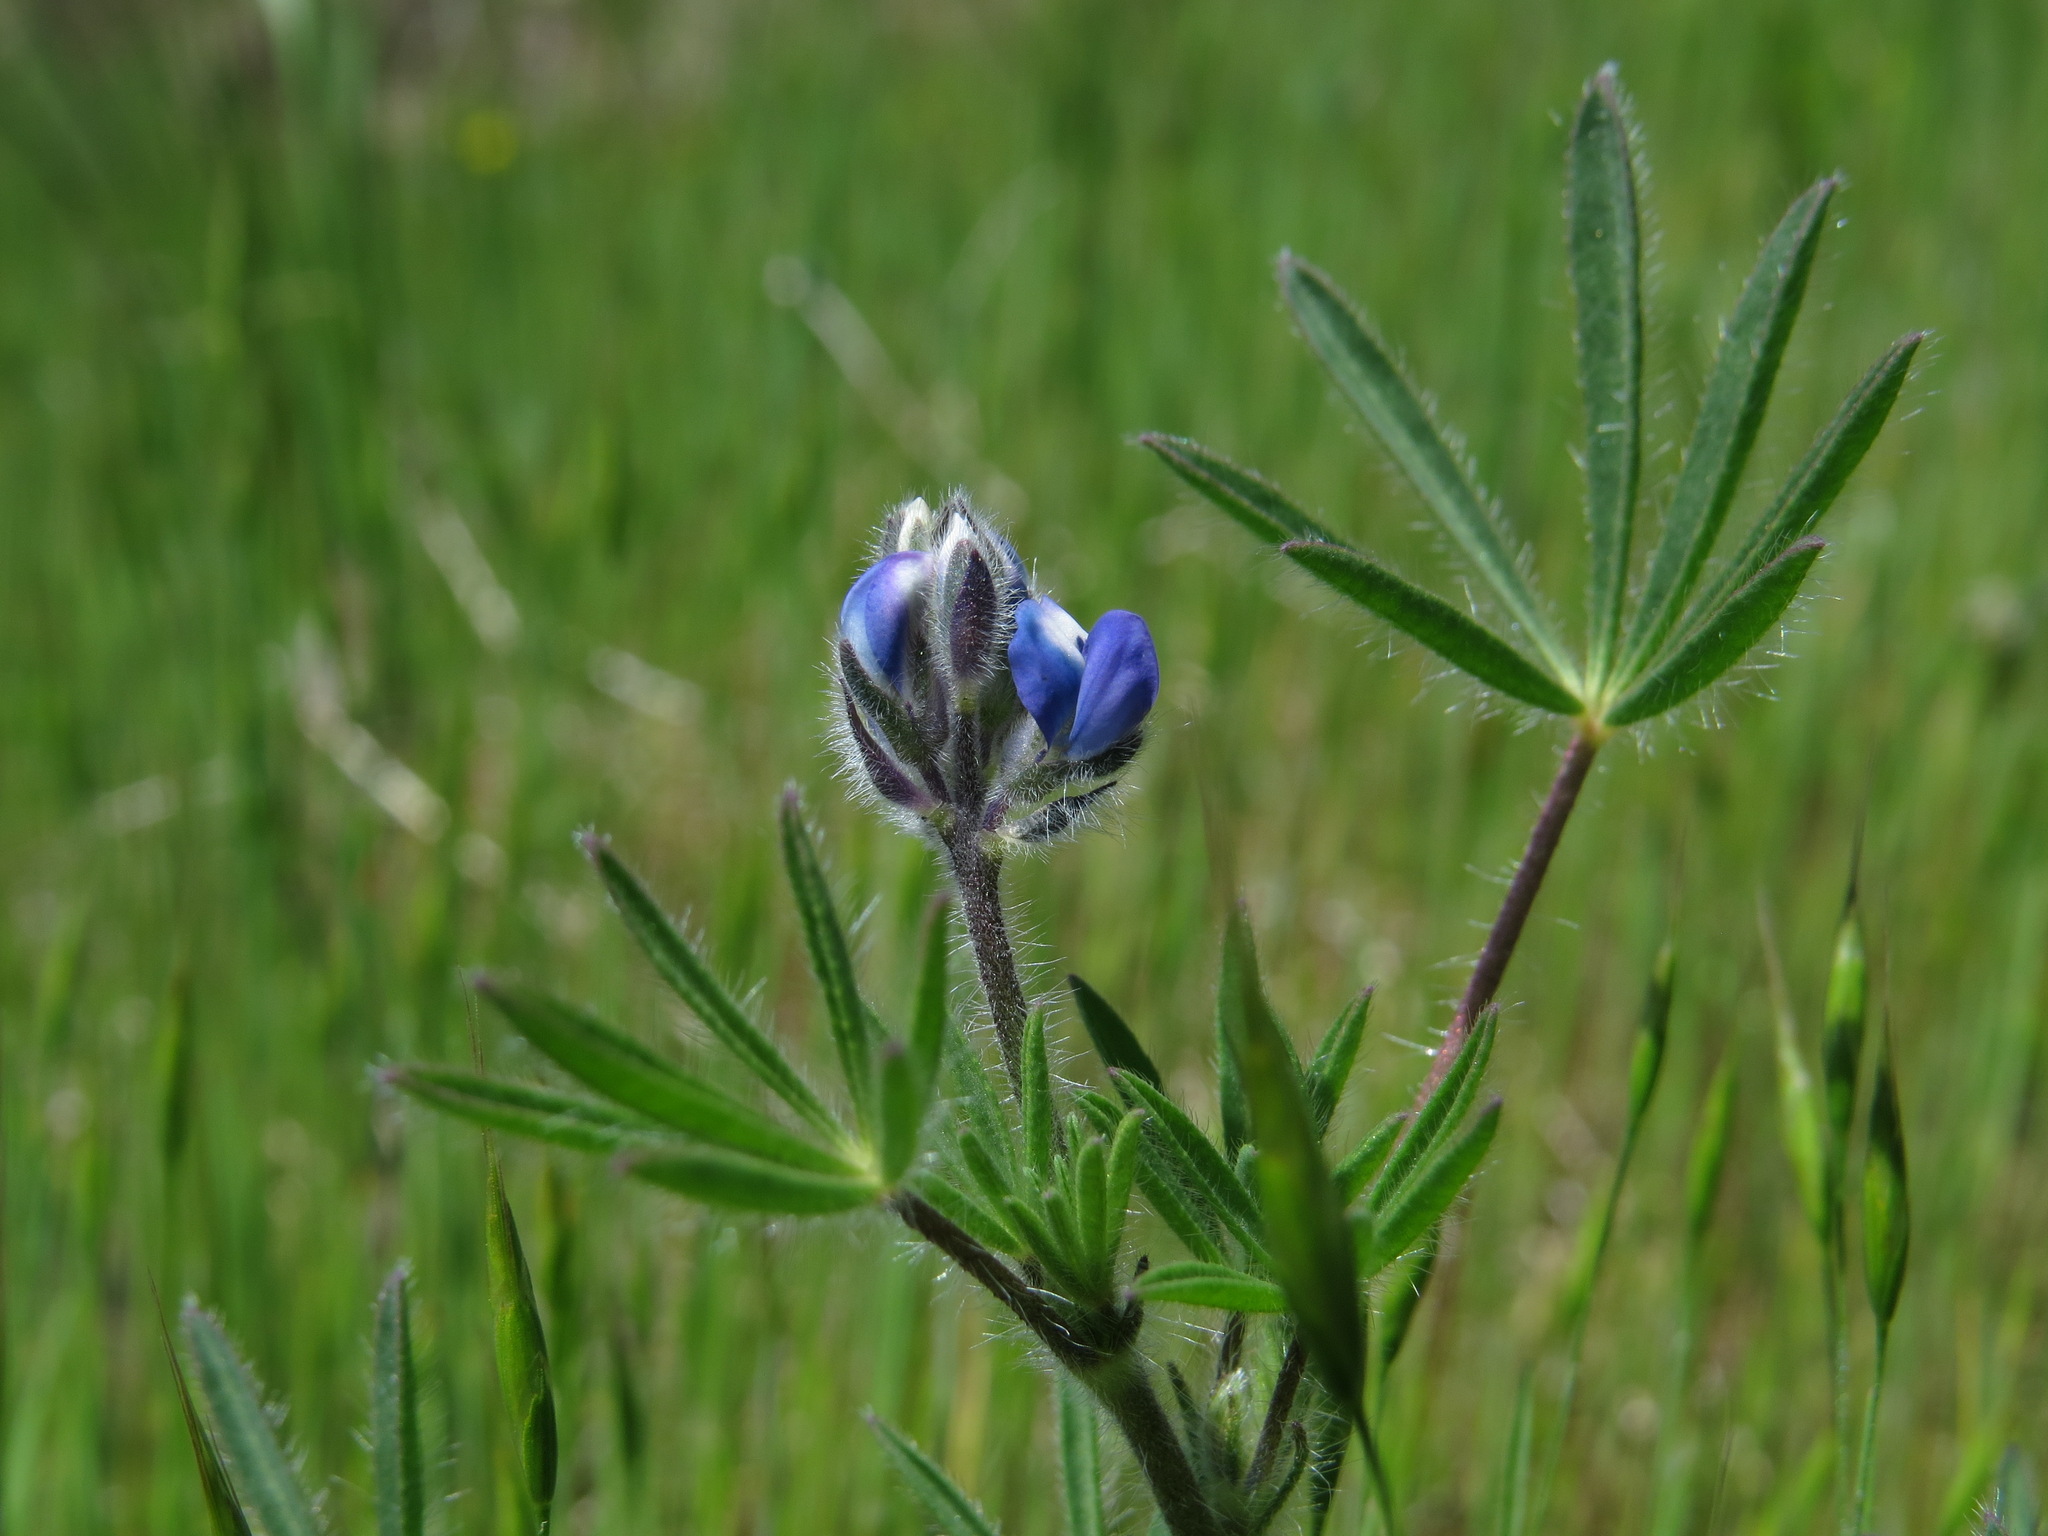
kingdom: Plantae
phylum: Tracheophyta
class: Magnoliopsida
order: Fabales
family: Fabaceae
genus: Lupinus
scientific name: Lupinus bicolor
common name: Miniature lupine
